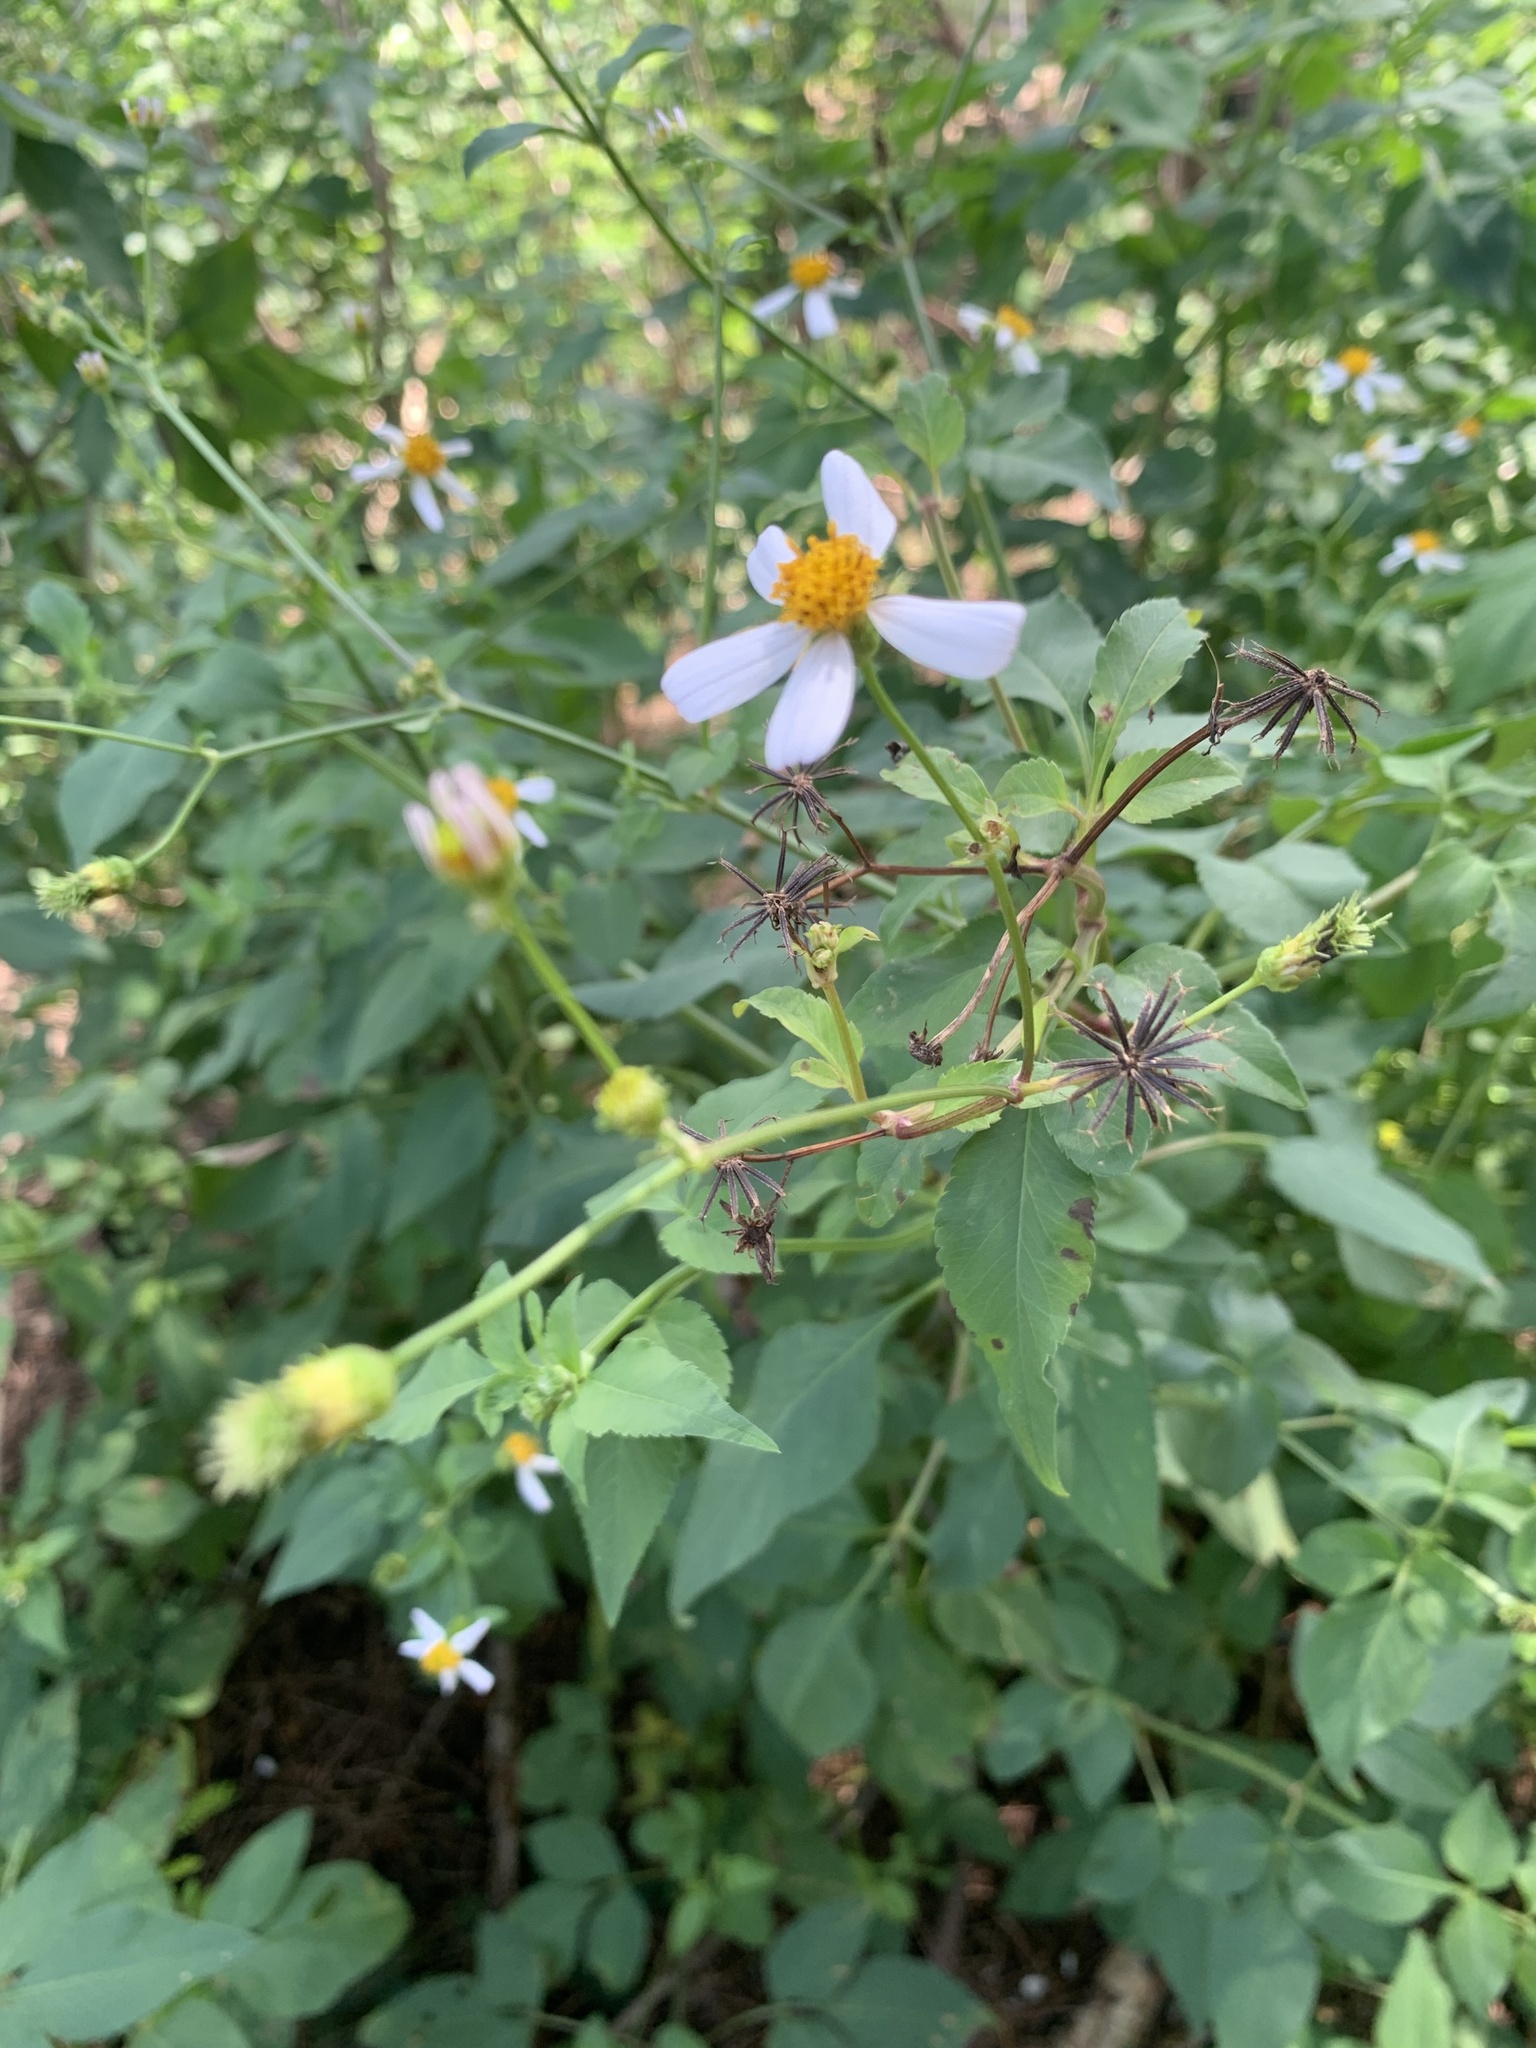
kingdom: Plantae
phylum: Tracheophyta
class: Magnoliopsida
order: Asterales
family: Asteraceae
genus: Bidens
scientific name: Bidens alba
